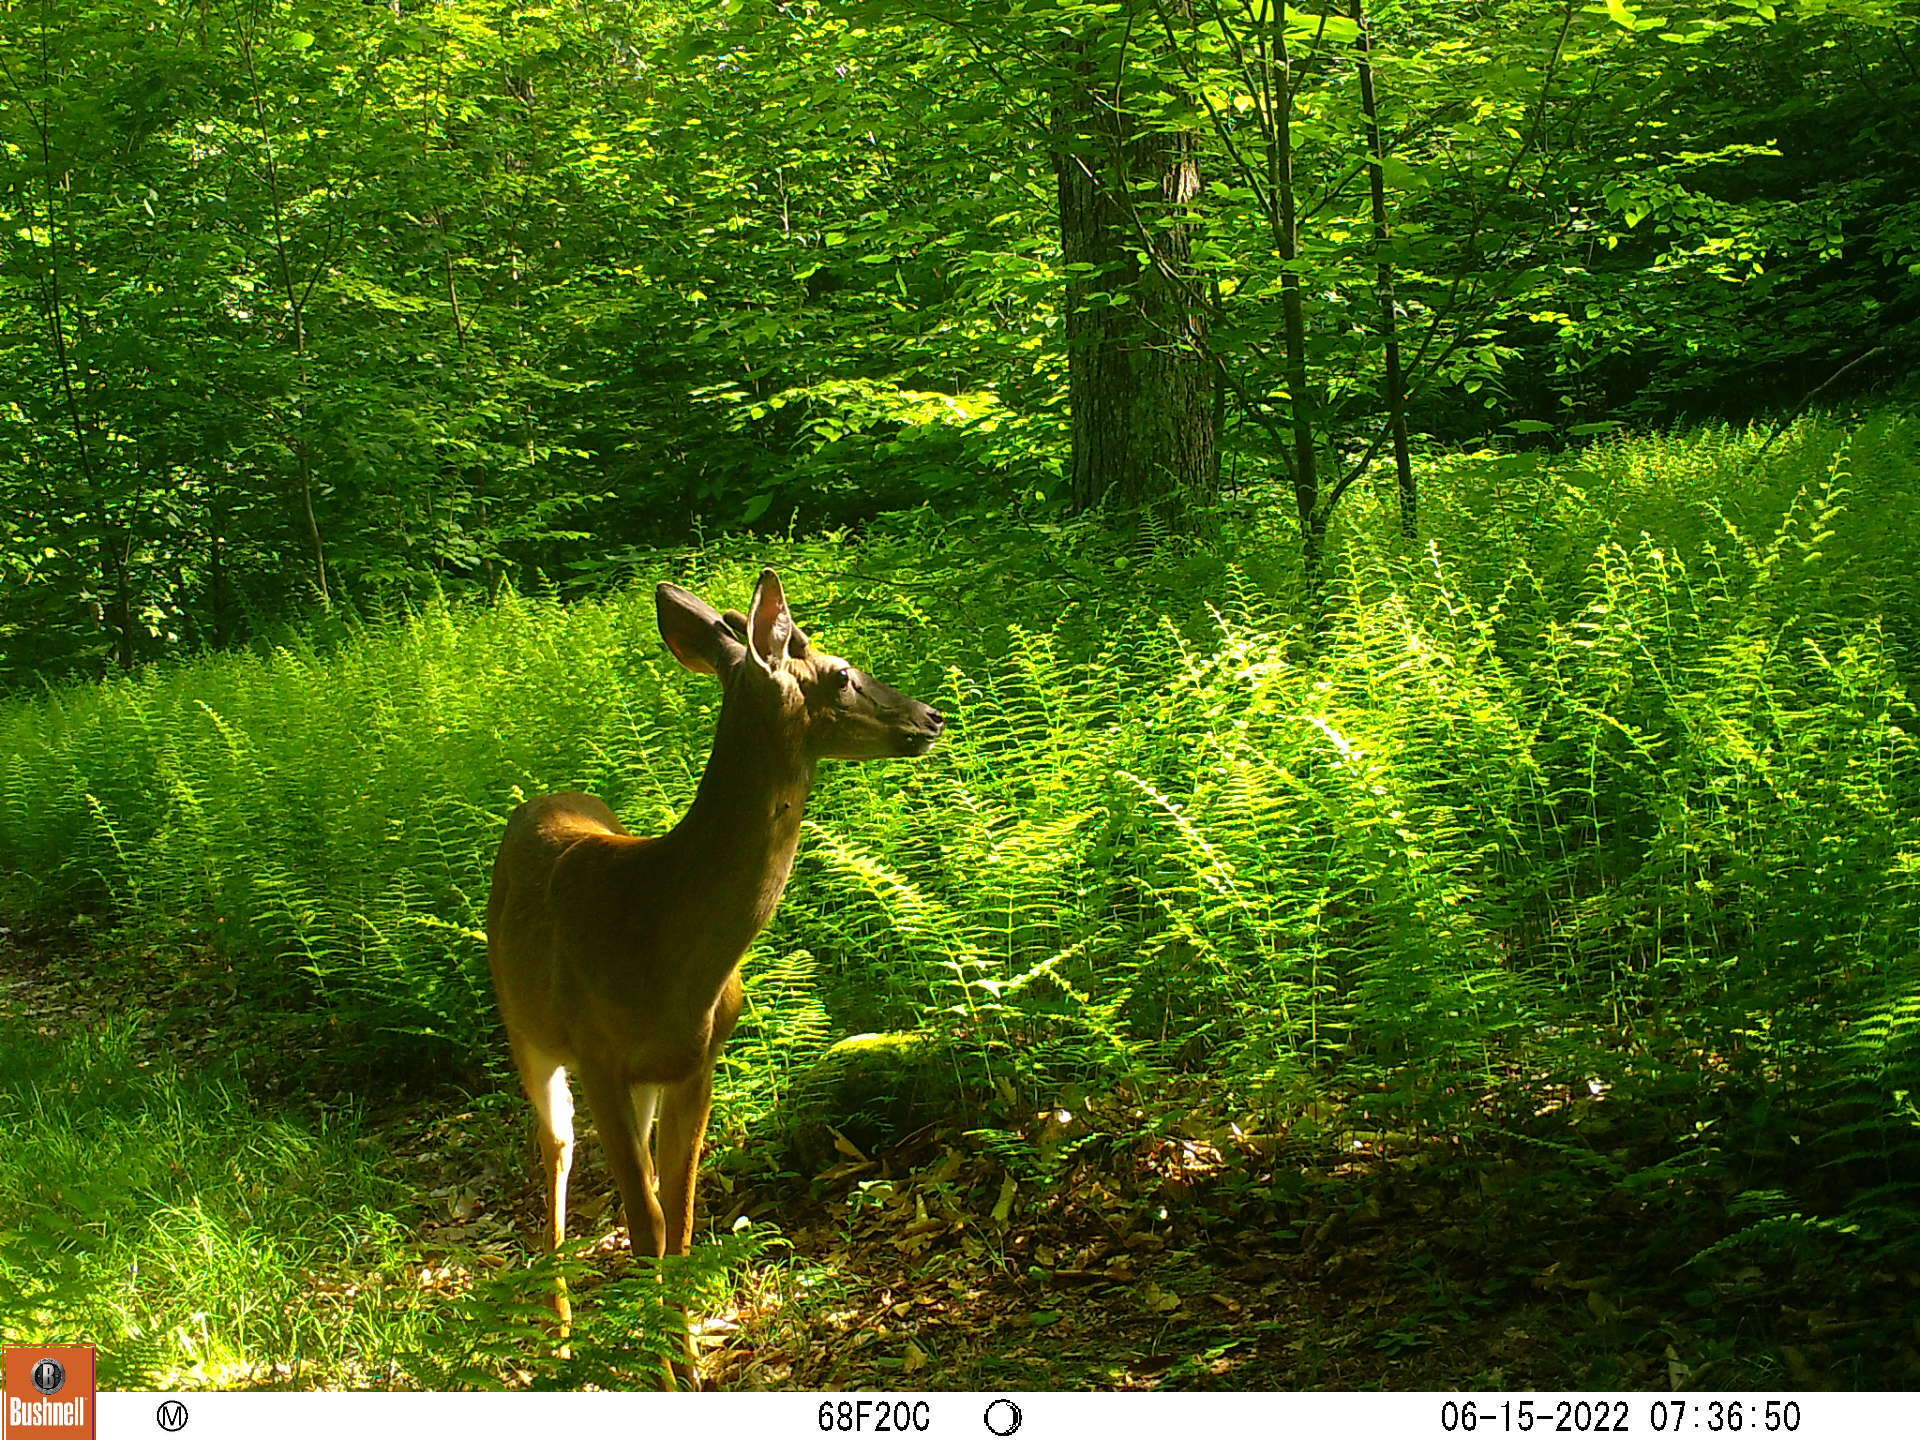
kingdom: Animalia
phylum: Chordata
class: Mammalia
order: Artiodactyla
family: Cervidae
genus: Odocoileus
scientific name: Odocoileus virginianus
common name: White-tailed deer
